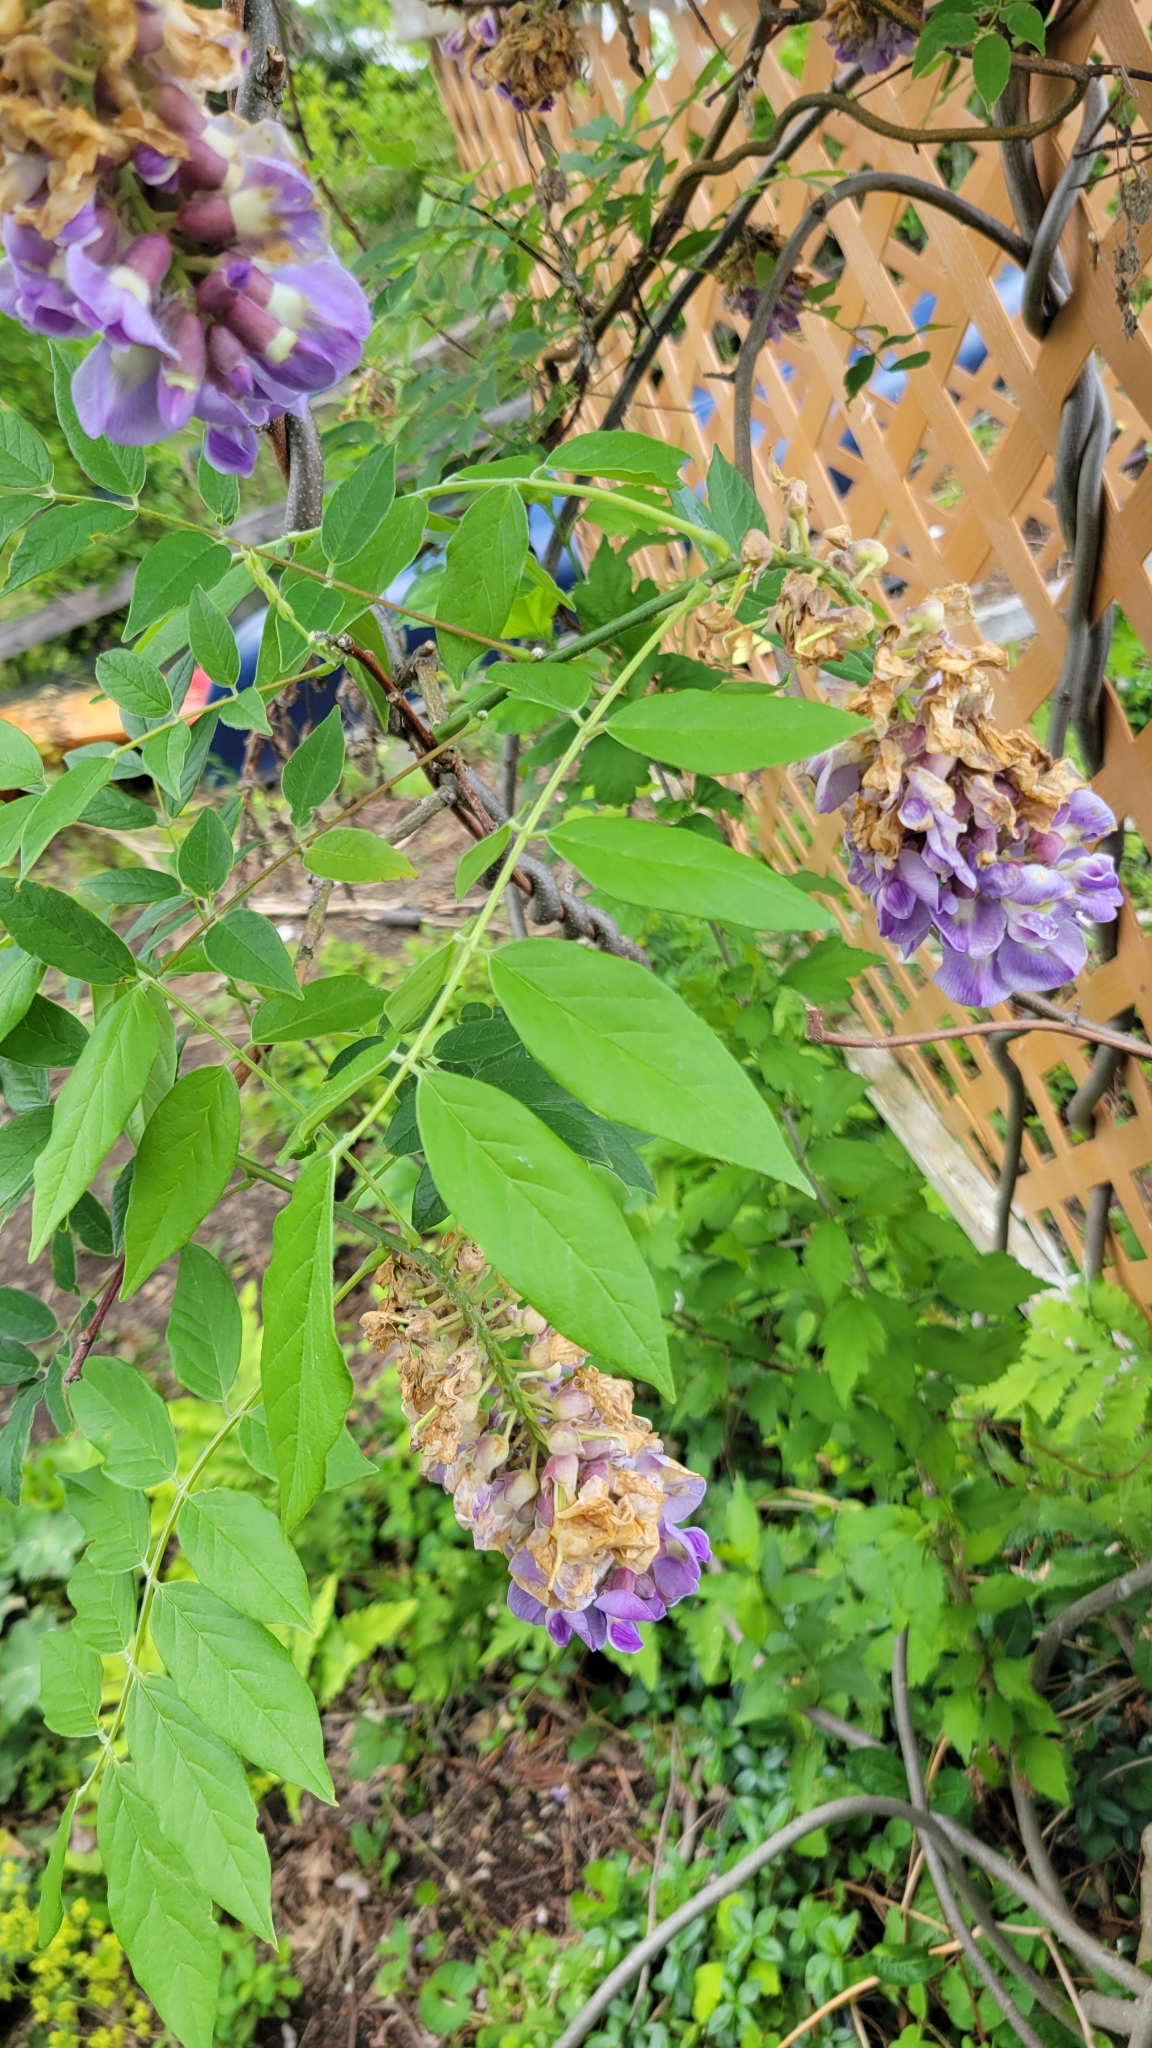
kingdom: Plantae
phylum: Tracheophyta
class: Magnoliopsida
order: Fabales
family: Fabaceae
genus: Wisteria
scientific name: Wisteria frutescens
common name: American wisteria
